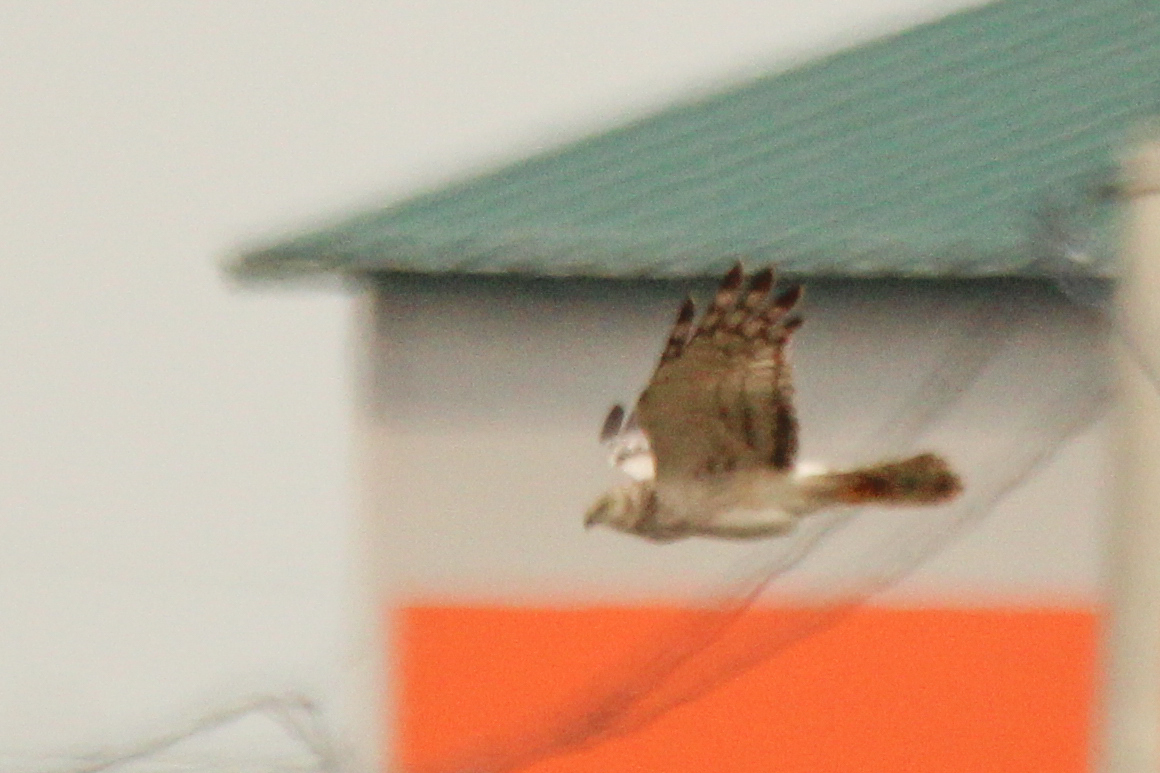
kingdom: Animalia
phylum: Chordata
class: Aves
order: Accipitriformes
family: Accipitridae
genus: Circus
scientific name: Circus melanoleucos
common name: Pied harrier
